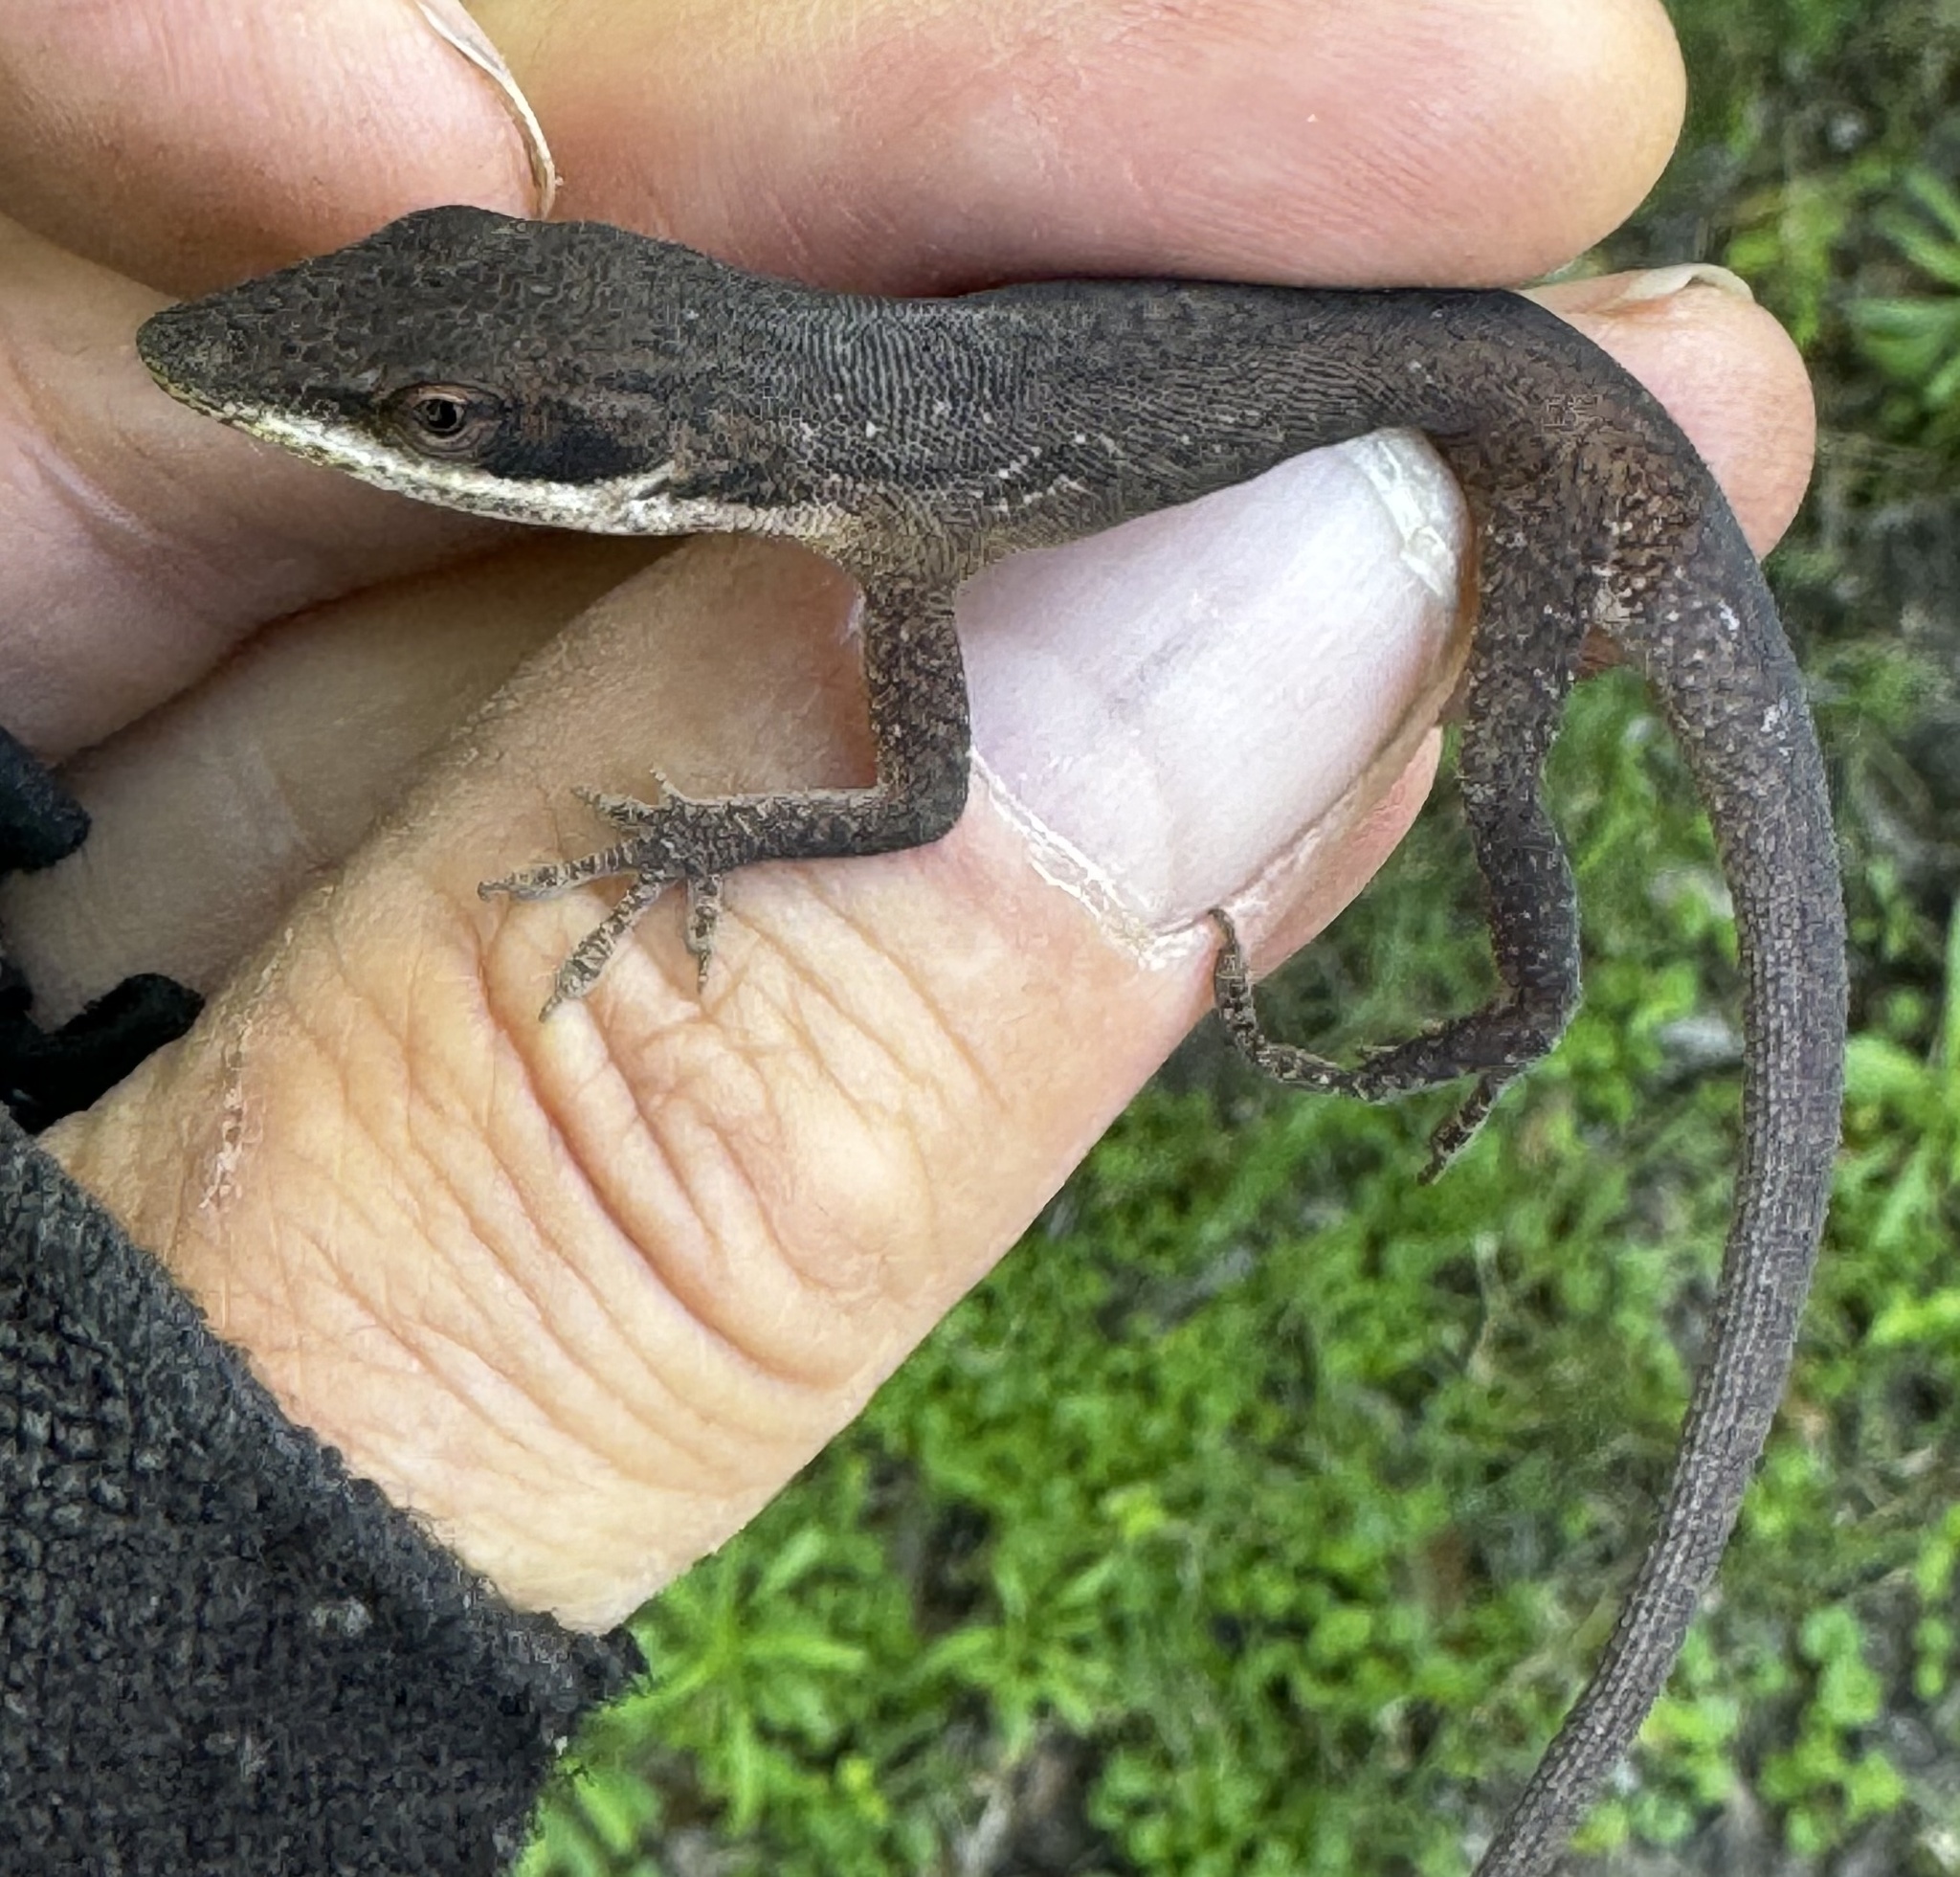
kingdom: Animalia
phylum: Chordata
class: Squamata
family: Dactyloidae
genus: Anolis
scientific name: Anolis carolinensis
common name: Green anole
